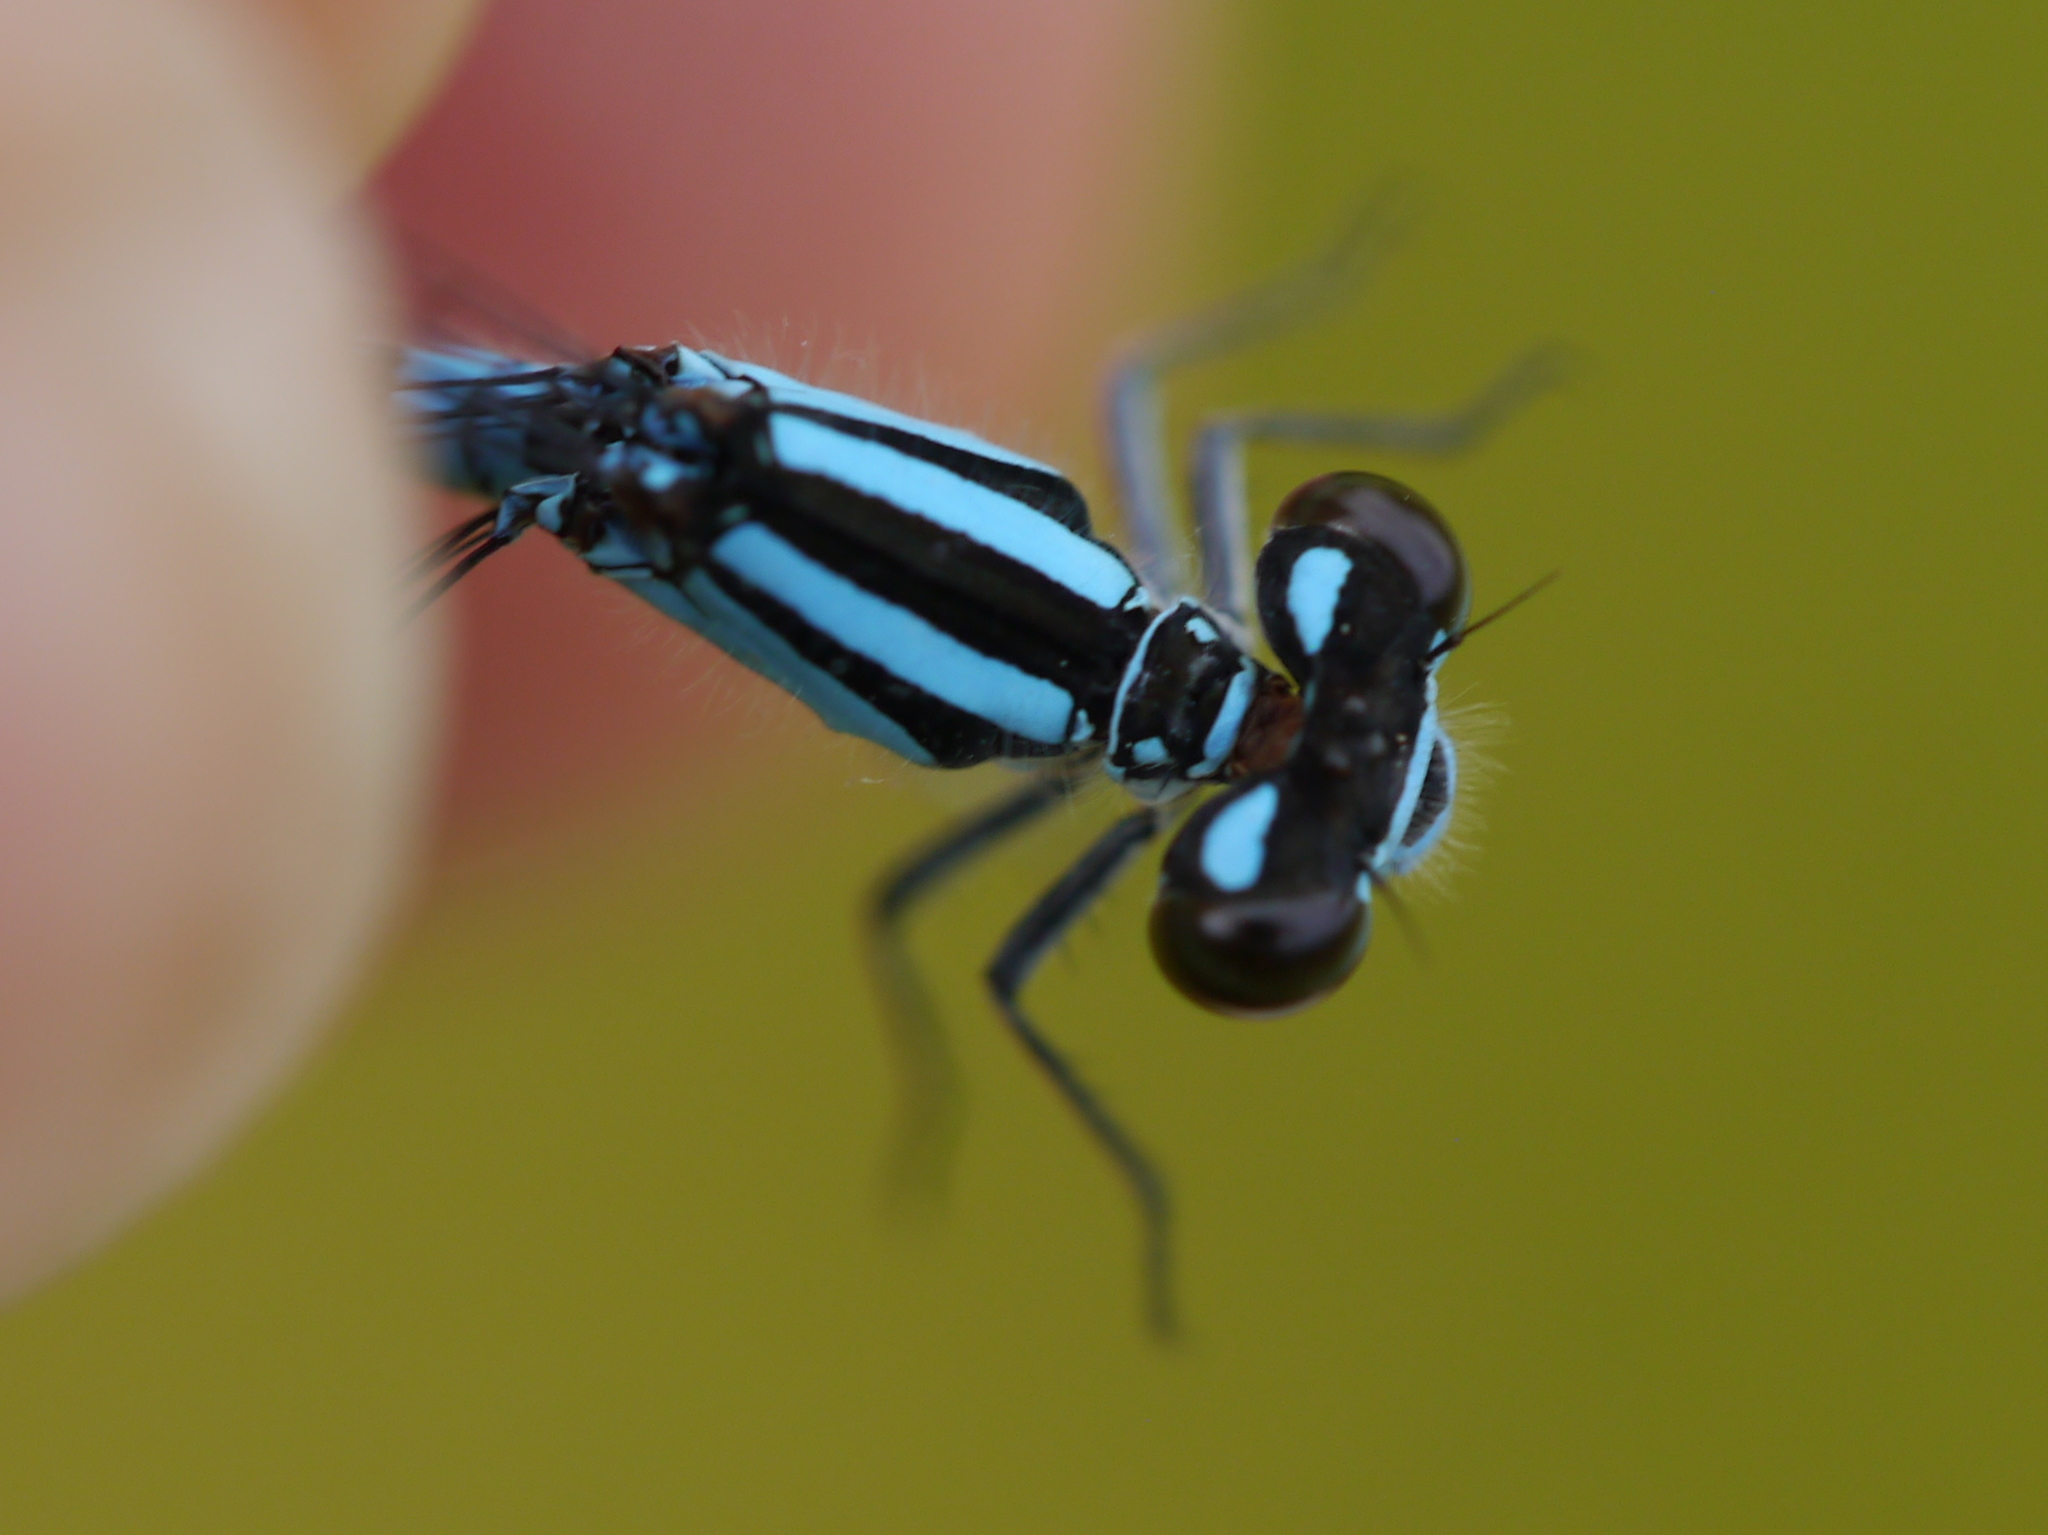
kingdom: Animalia
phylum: Arthropoda
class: Insecta
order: Odonata
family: Coenagrionidae
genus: Enallagma
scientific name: Enallagma hageni
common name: Hagen's bluet
